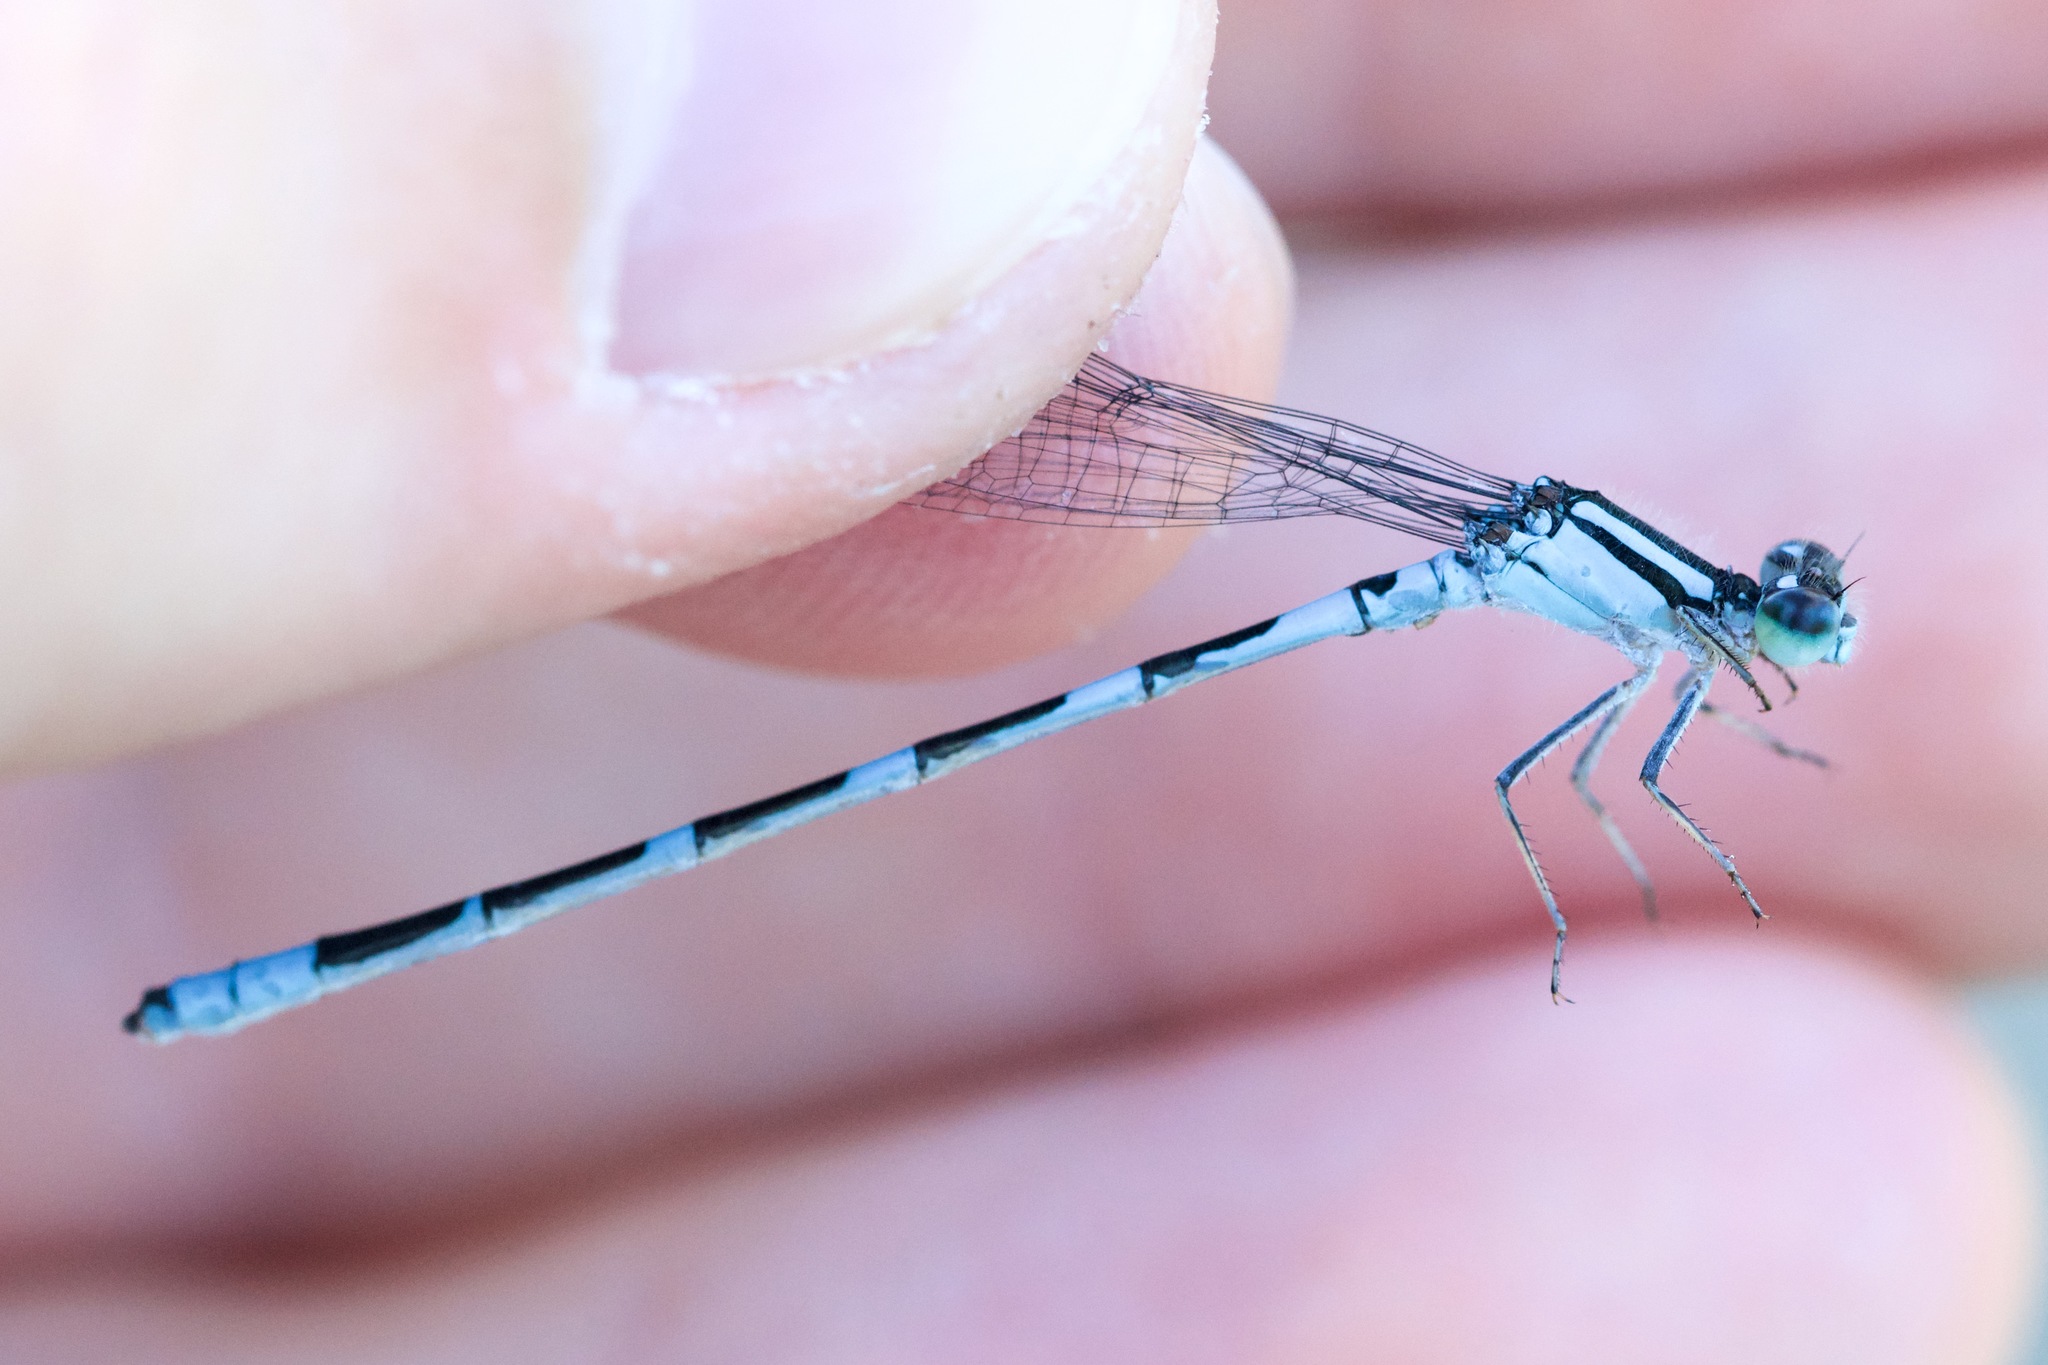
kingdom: Animalia
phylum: Arthropoda
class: Insecta
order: Odonata
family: Coenagrionidae
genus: Enallagma
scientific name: Enallagma carunculatum
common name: Tule bluet
